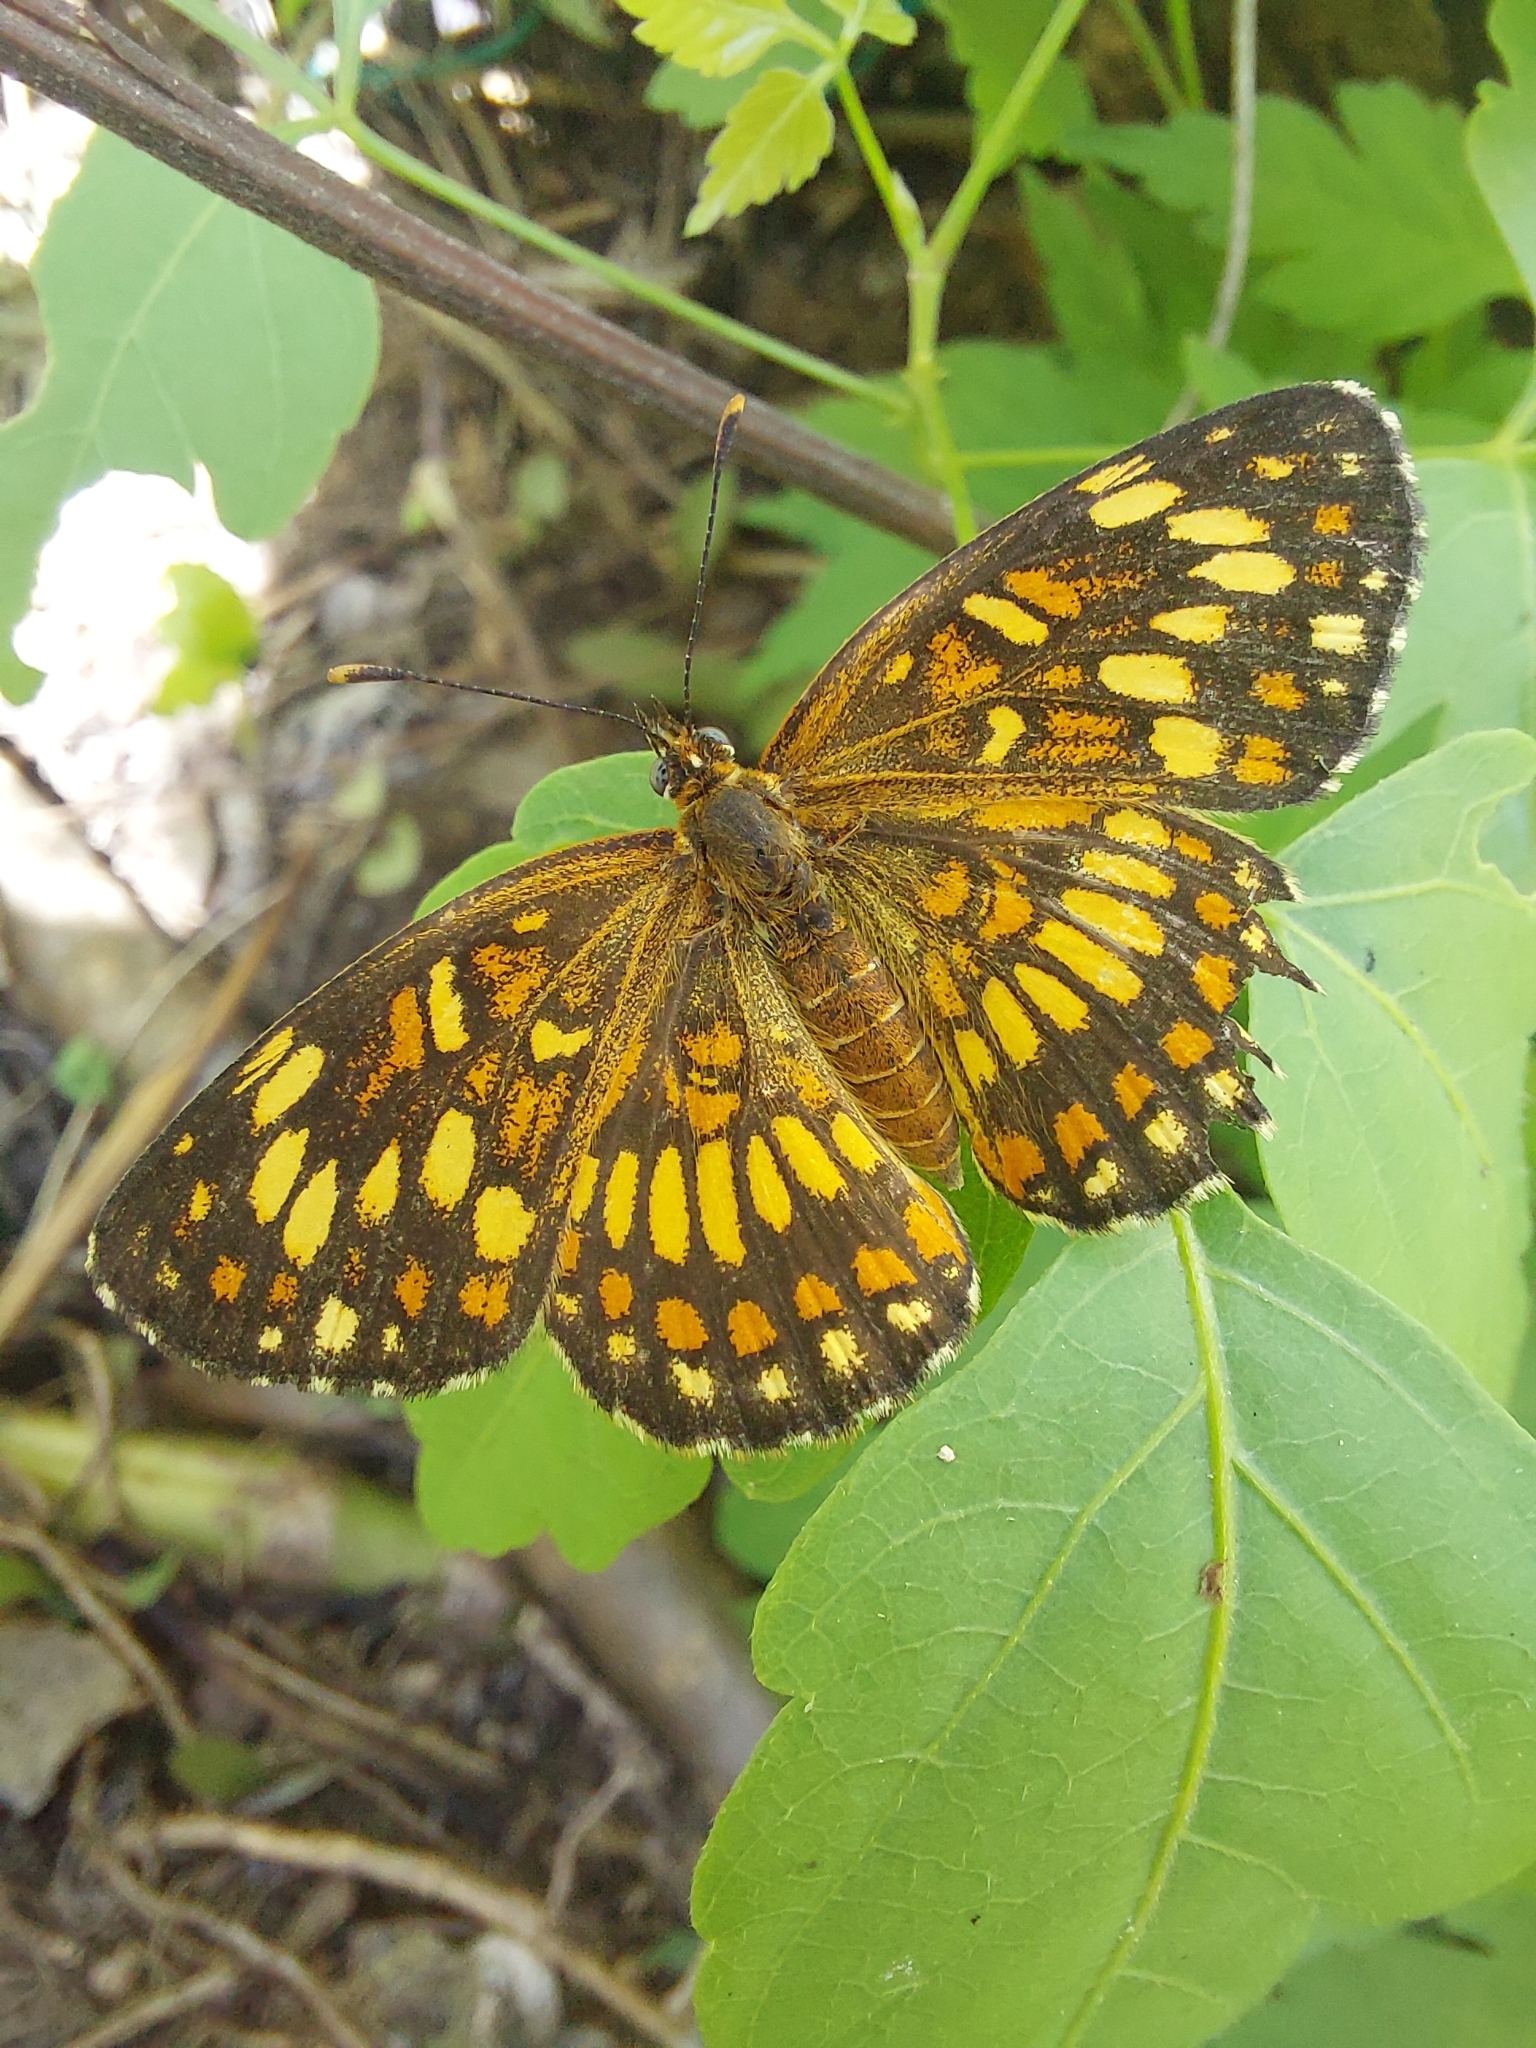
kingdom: Animalia
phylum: Arthropoda
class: Insecta
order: Lepidoptera
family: Nymphalidae
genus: Thessalia
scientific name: Thessalia theona
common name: Nymphalid moth
